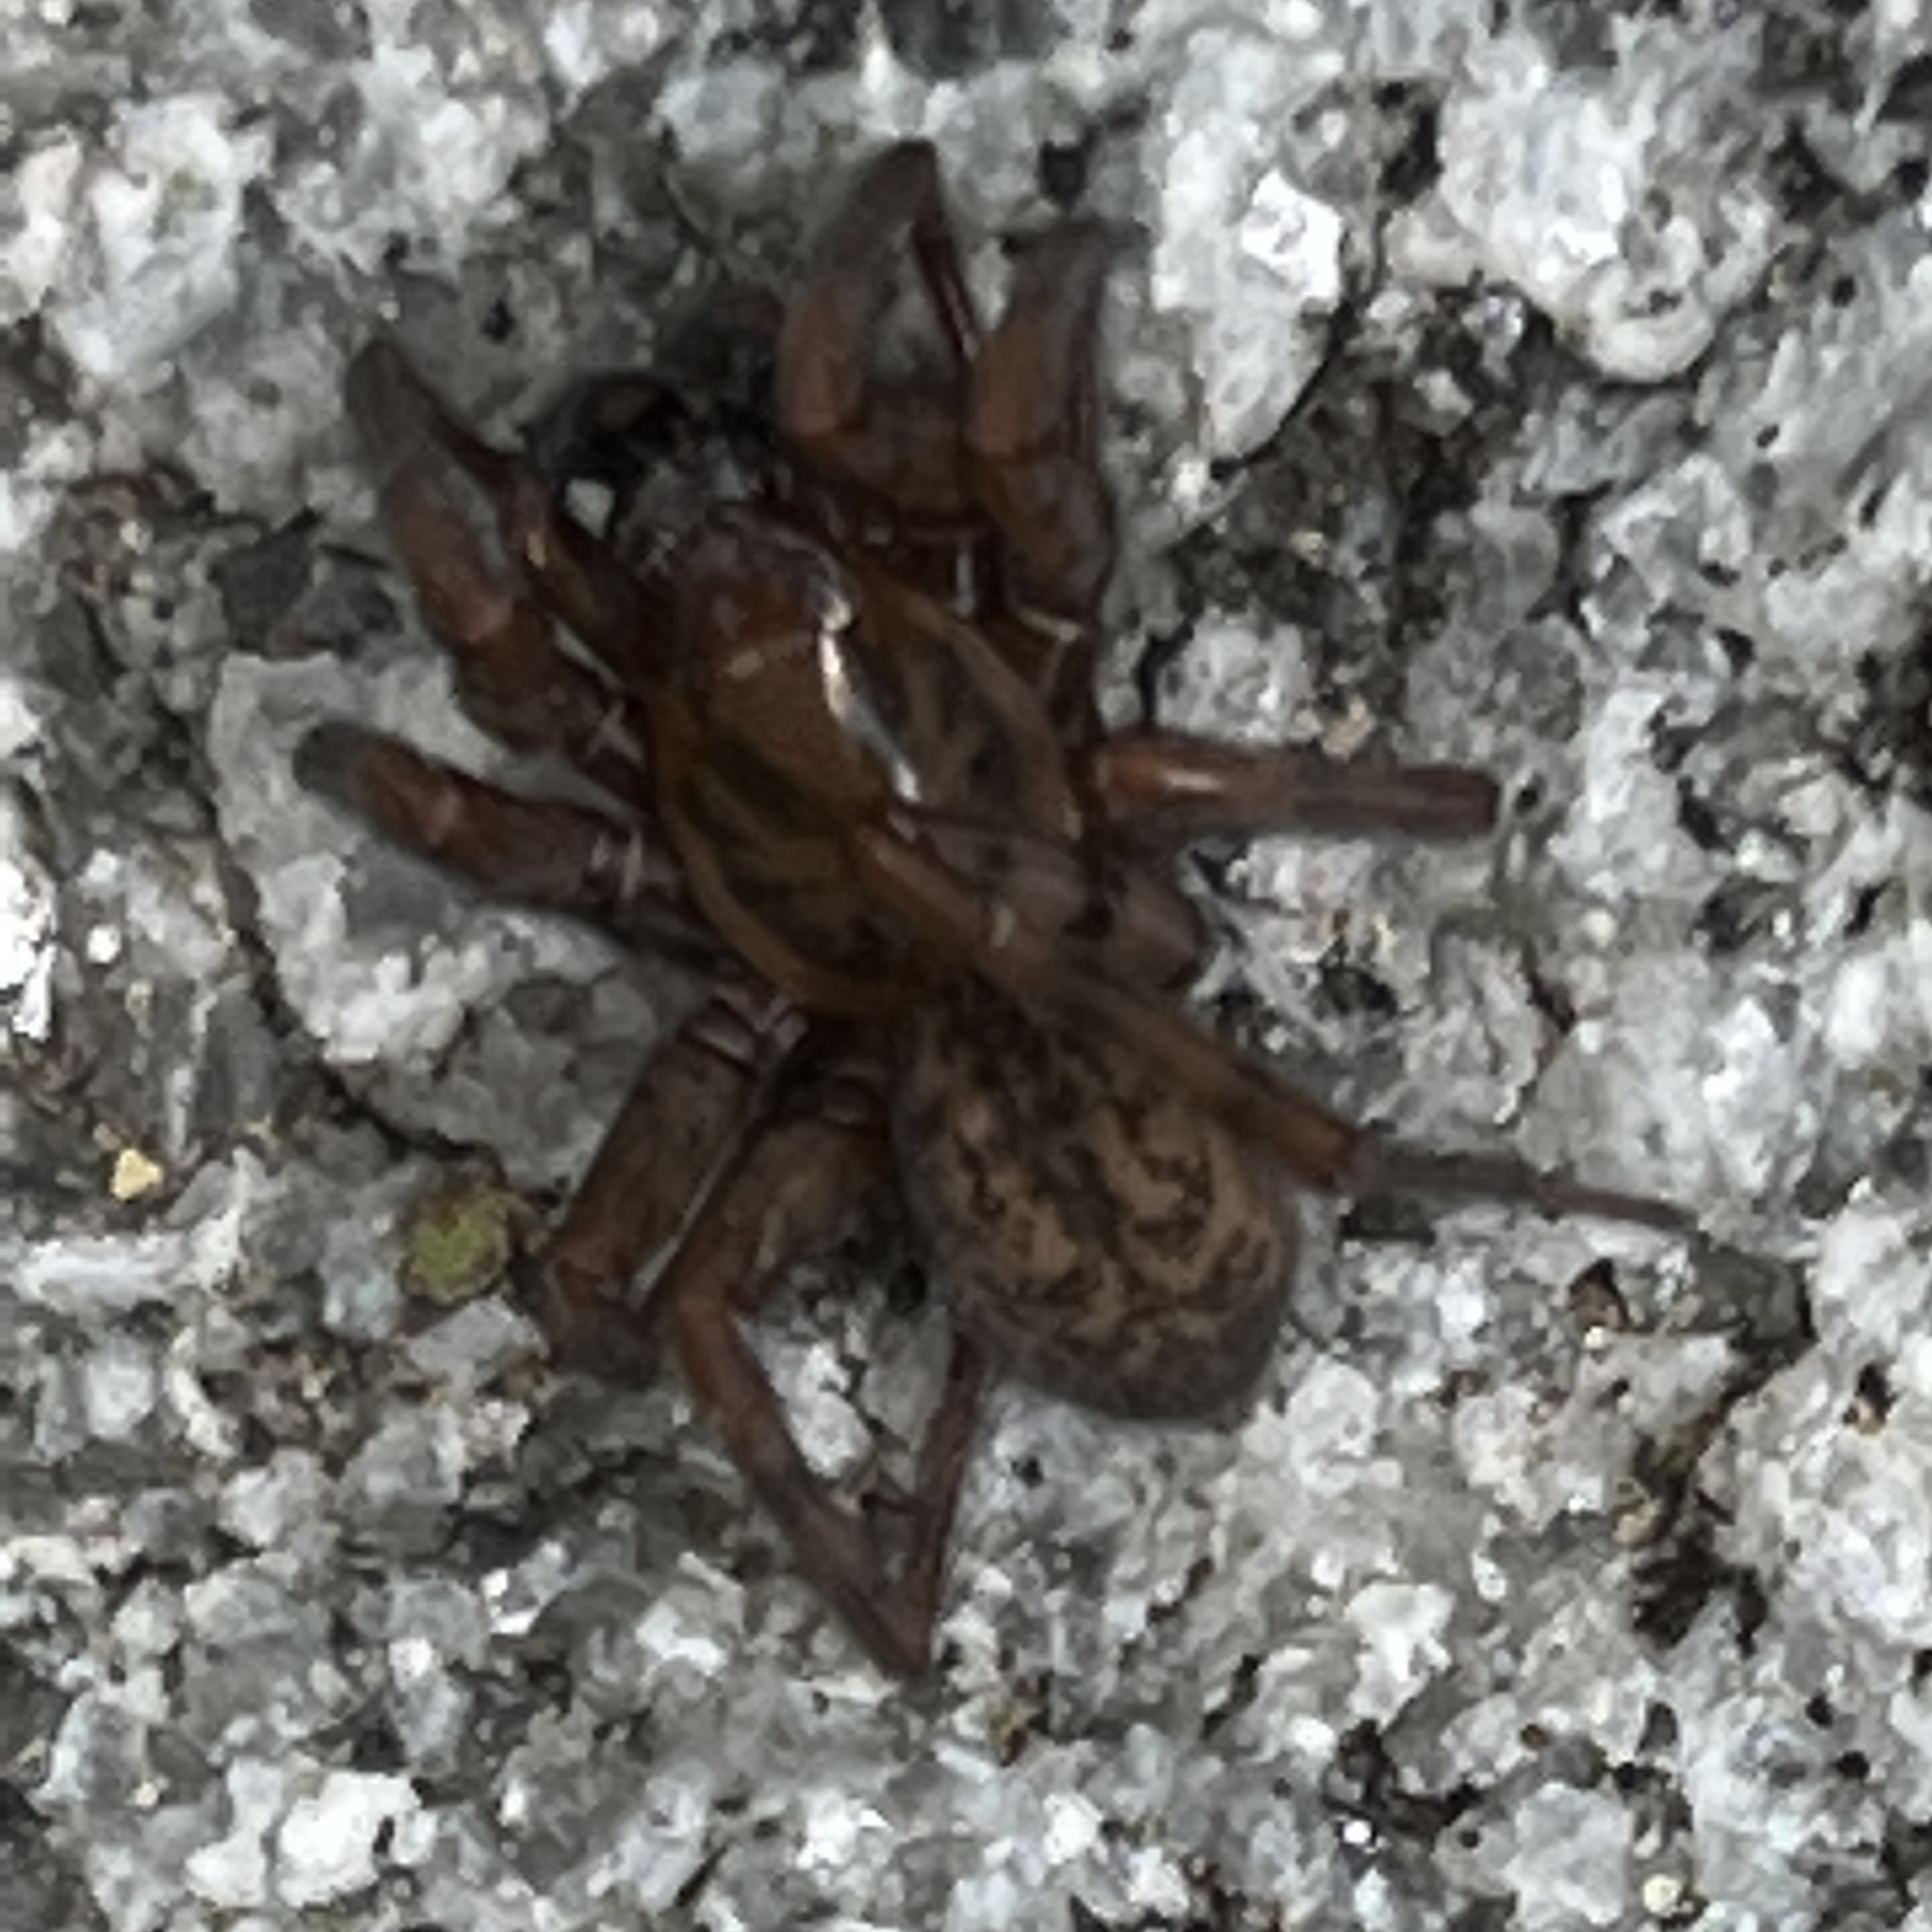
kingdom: Animalia
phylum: Arthropoda
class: Arachnida
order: Araneae
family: Agelenidae
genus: Coras
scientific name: Coras
